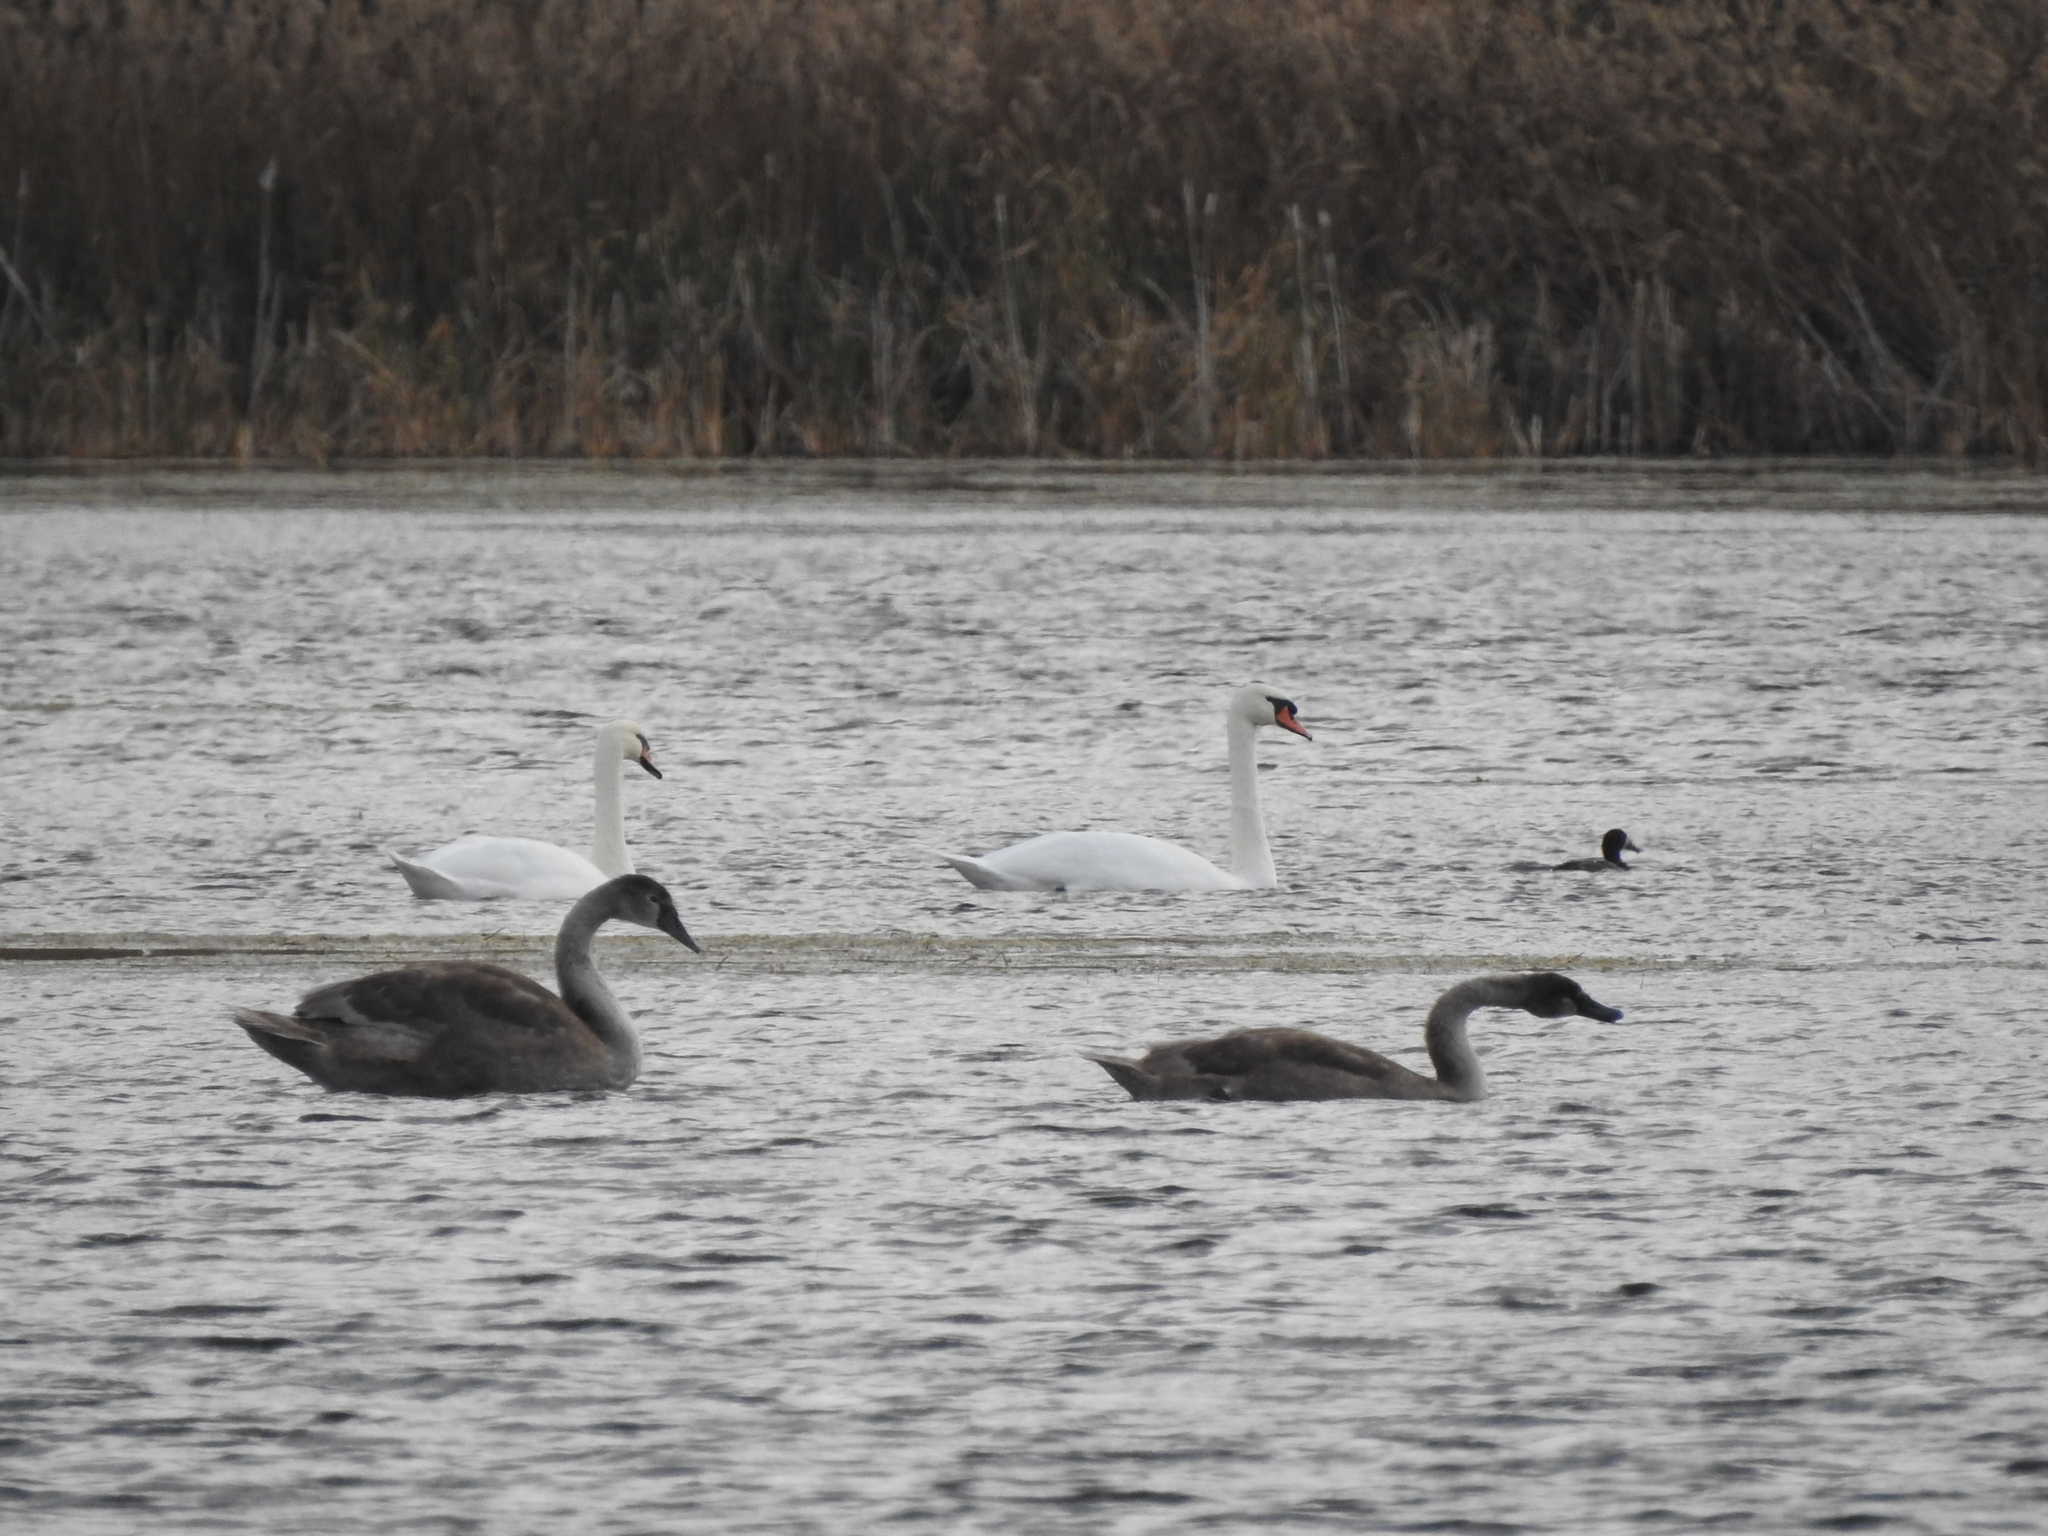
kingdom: Animalia
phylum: Chordata
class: Aves
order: Anseriformes
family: Anatidae
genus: Cygnus
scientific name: Cygnus olor
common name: Mute swan
